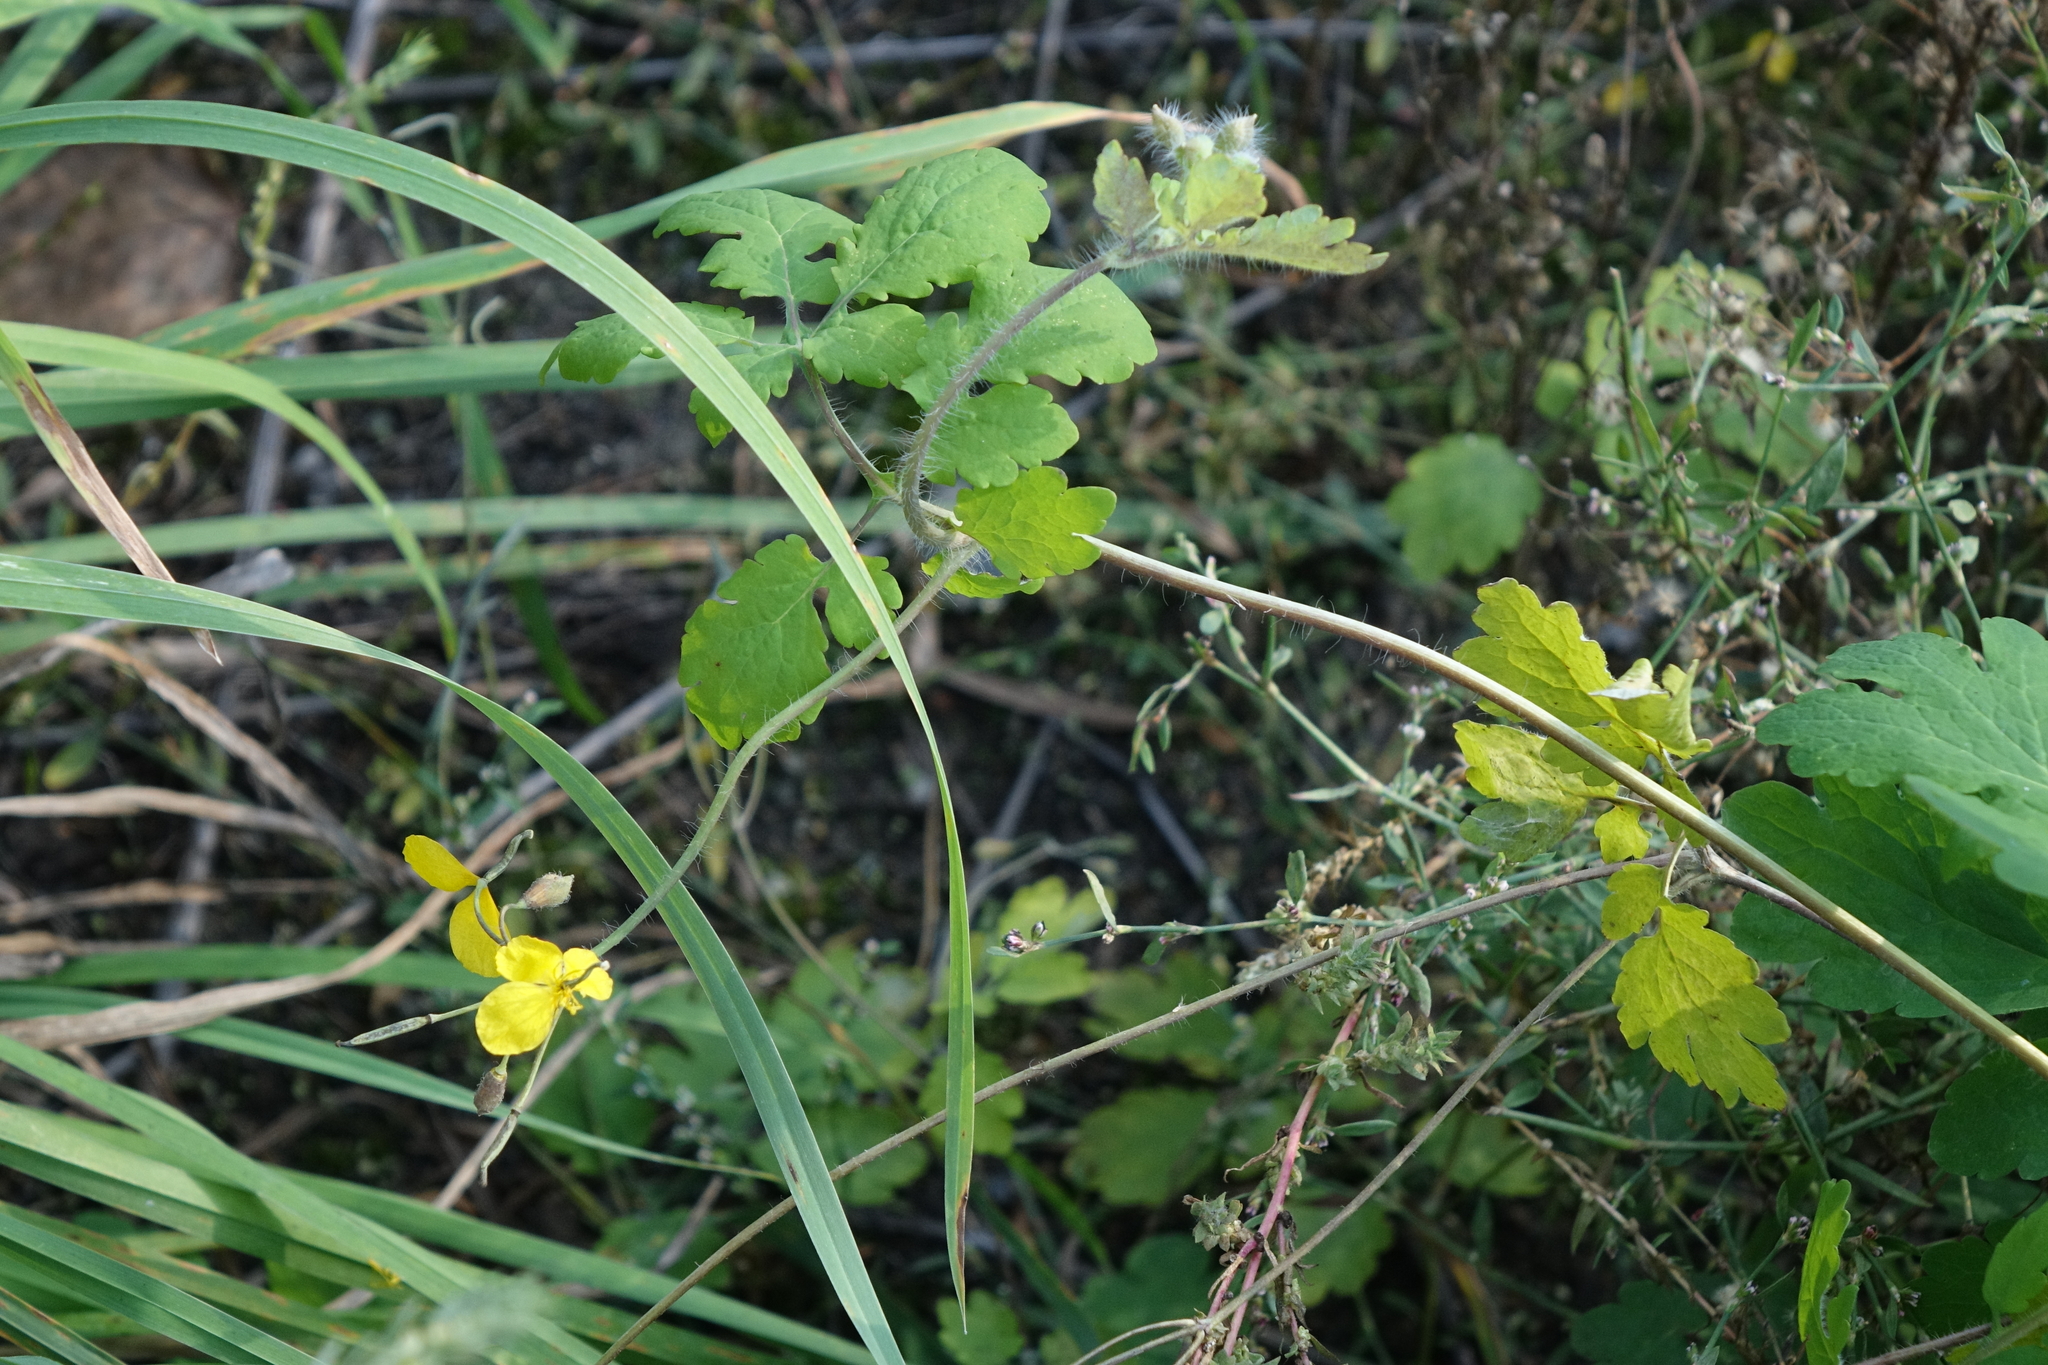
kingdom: Plantae
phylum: Tracheophyta
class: Magnoliopsida
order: Ranunculales
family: Papaveraceae
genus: Chelidonium
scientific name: Chelidonium majus
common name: Greater celandine
